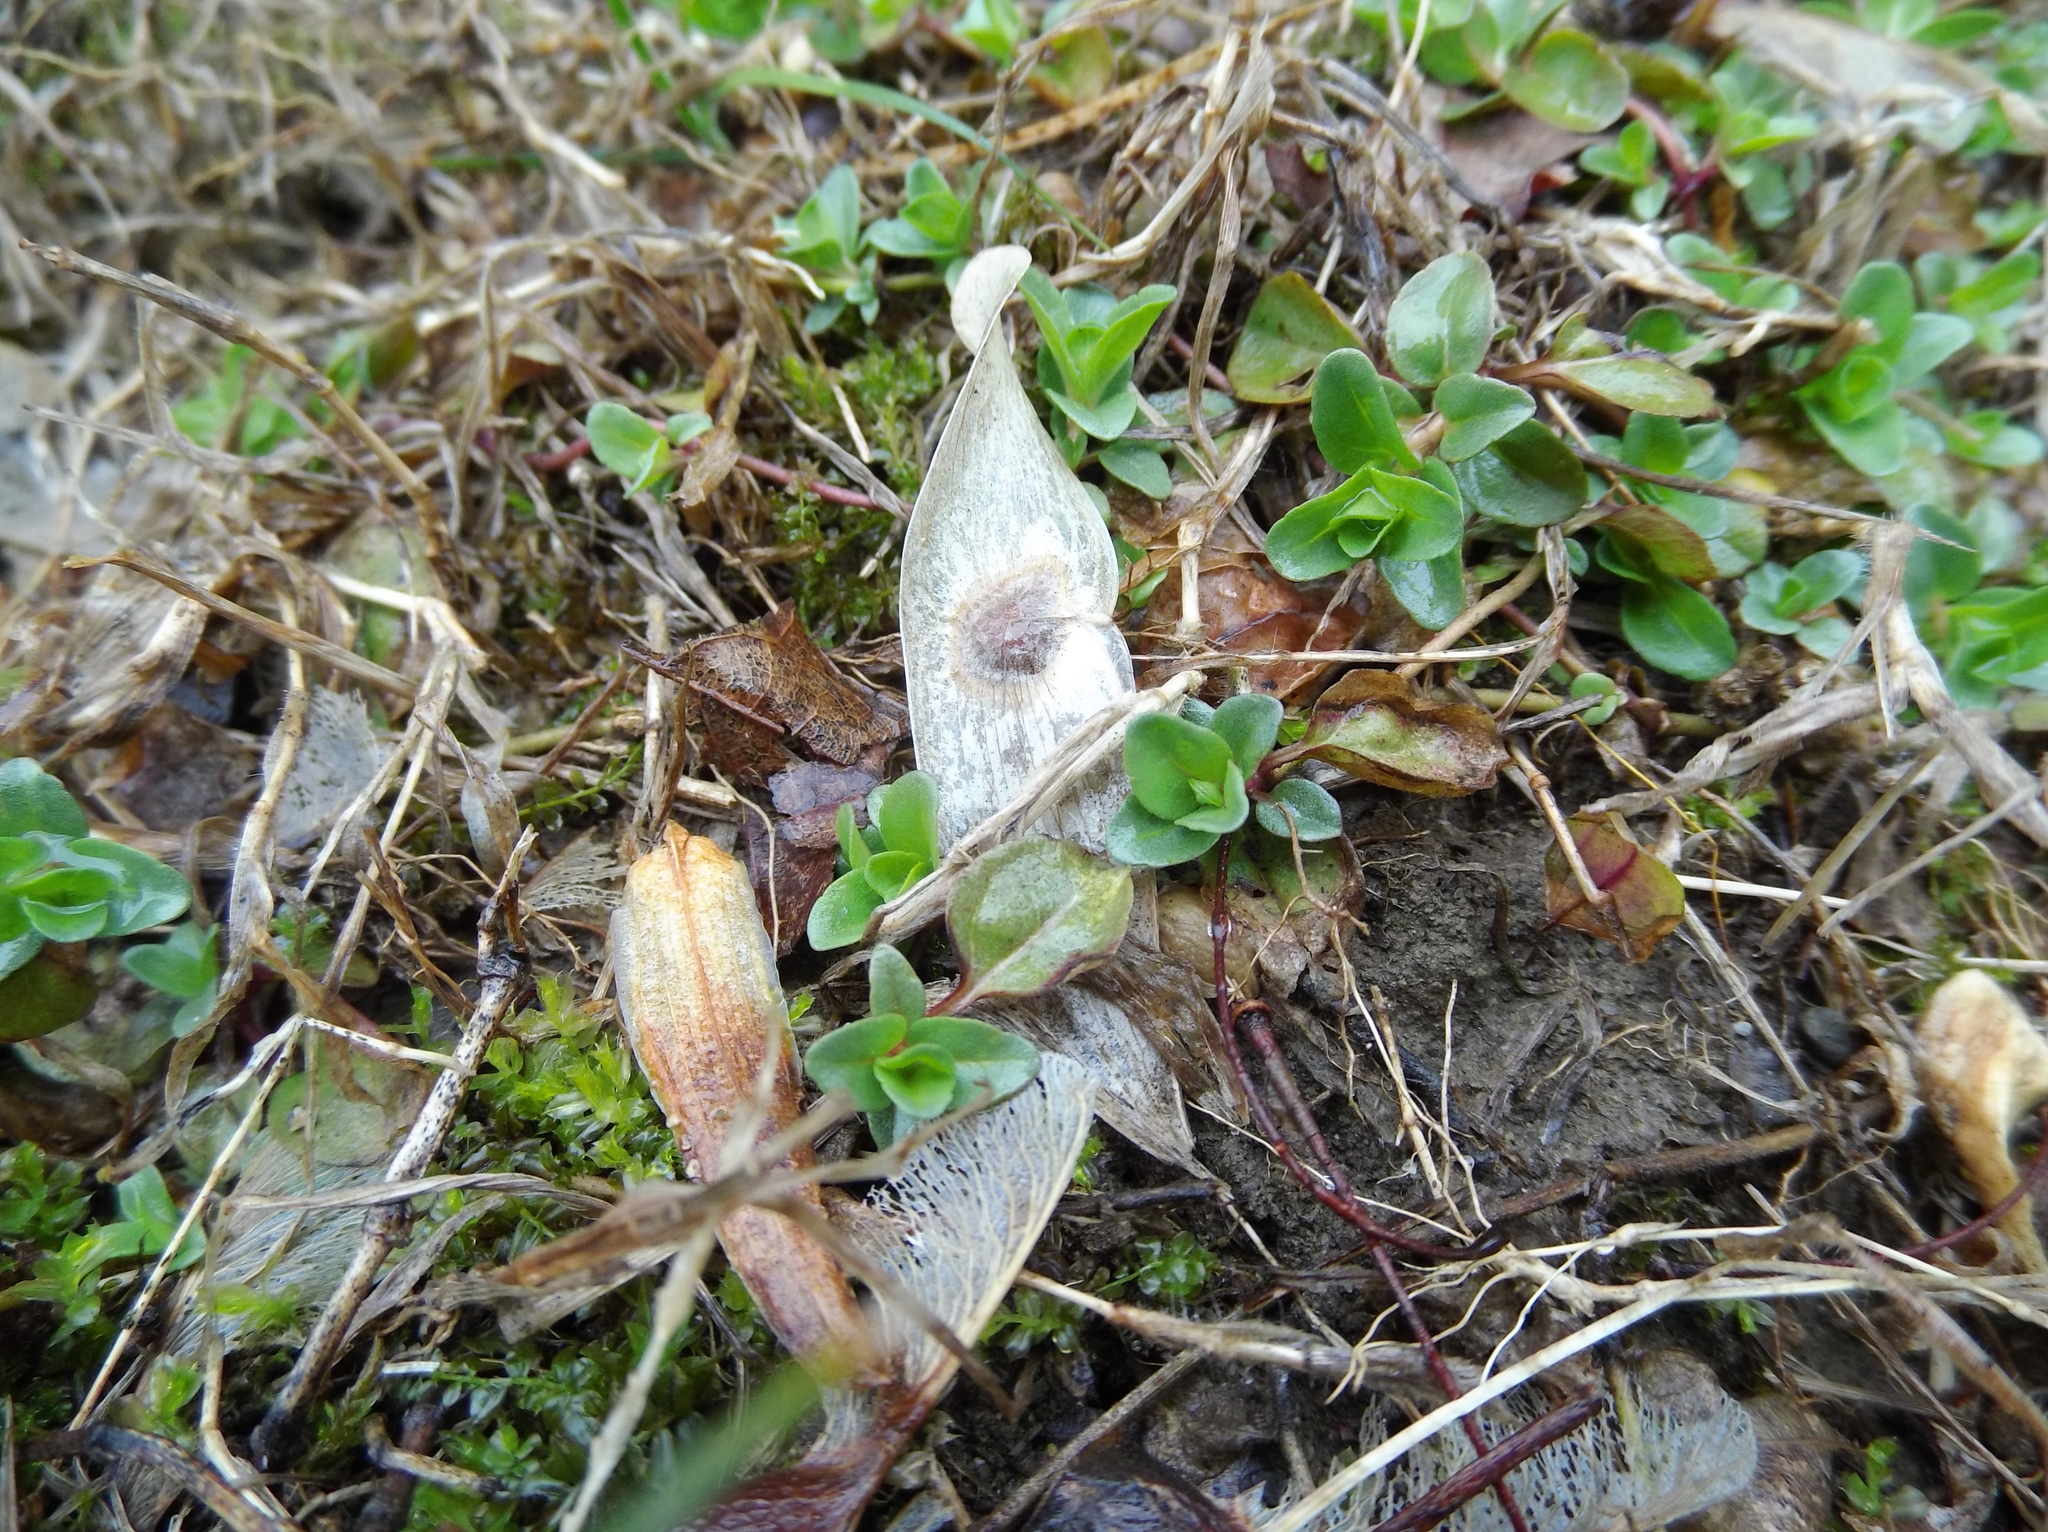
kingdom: Plantae
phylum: Tracheophyta
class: Magnoliopsida
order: Sapindales
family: Simaroubaceae
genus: Ailanthus
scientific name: Ailanthus altissima
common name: Tree-of-heaven
